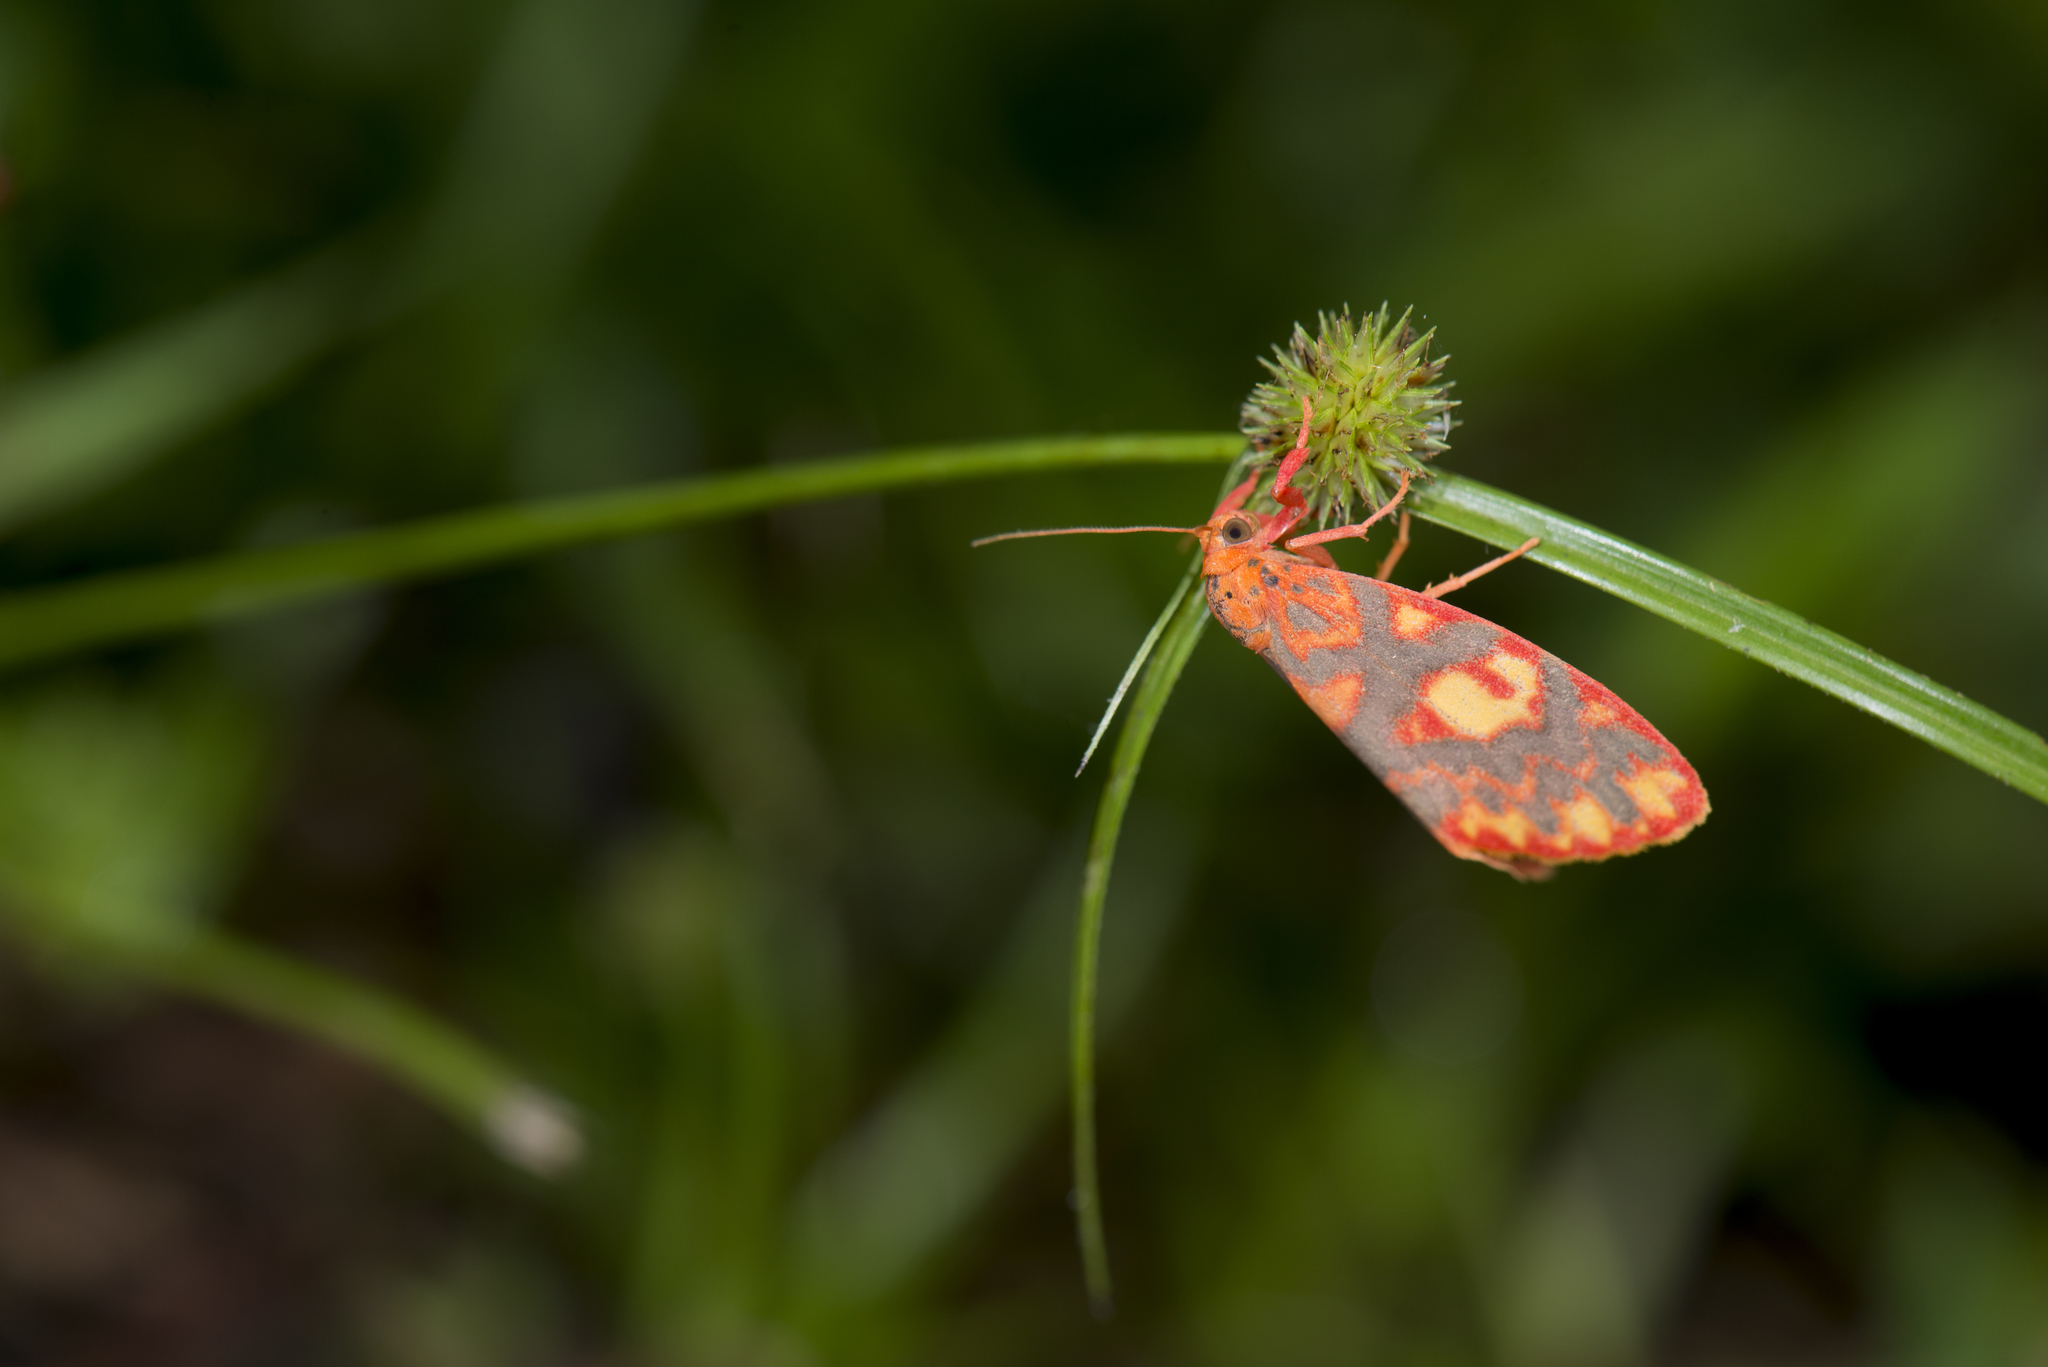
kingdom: Animalia
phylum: Arthropoda
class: Insecta
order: Lepidoptera
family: Erebidae
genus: Floridasura
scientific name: Floridasura tricolor
